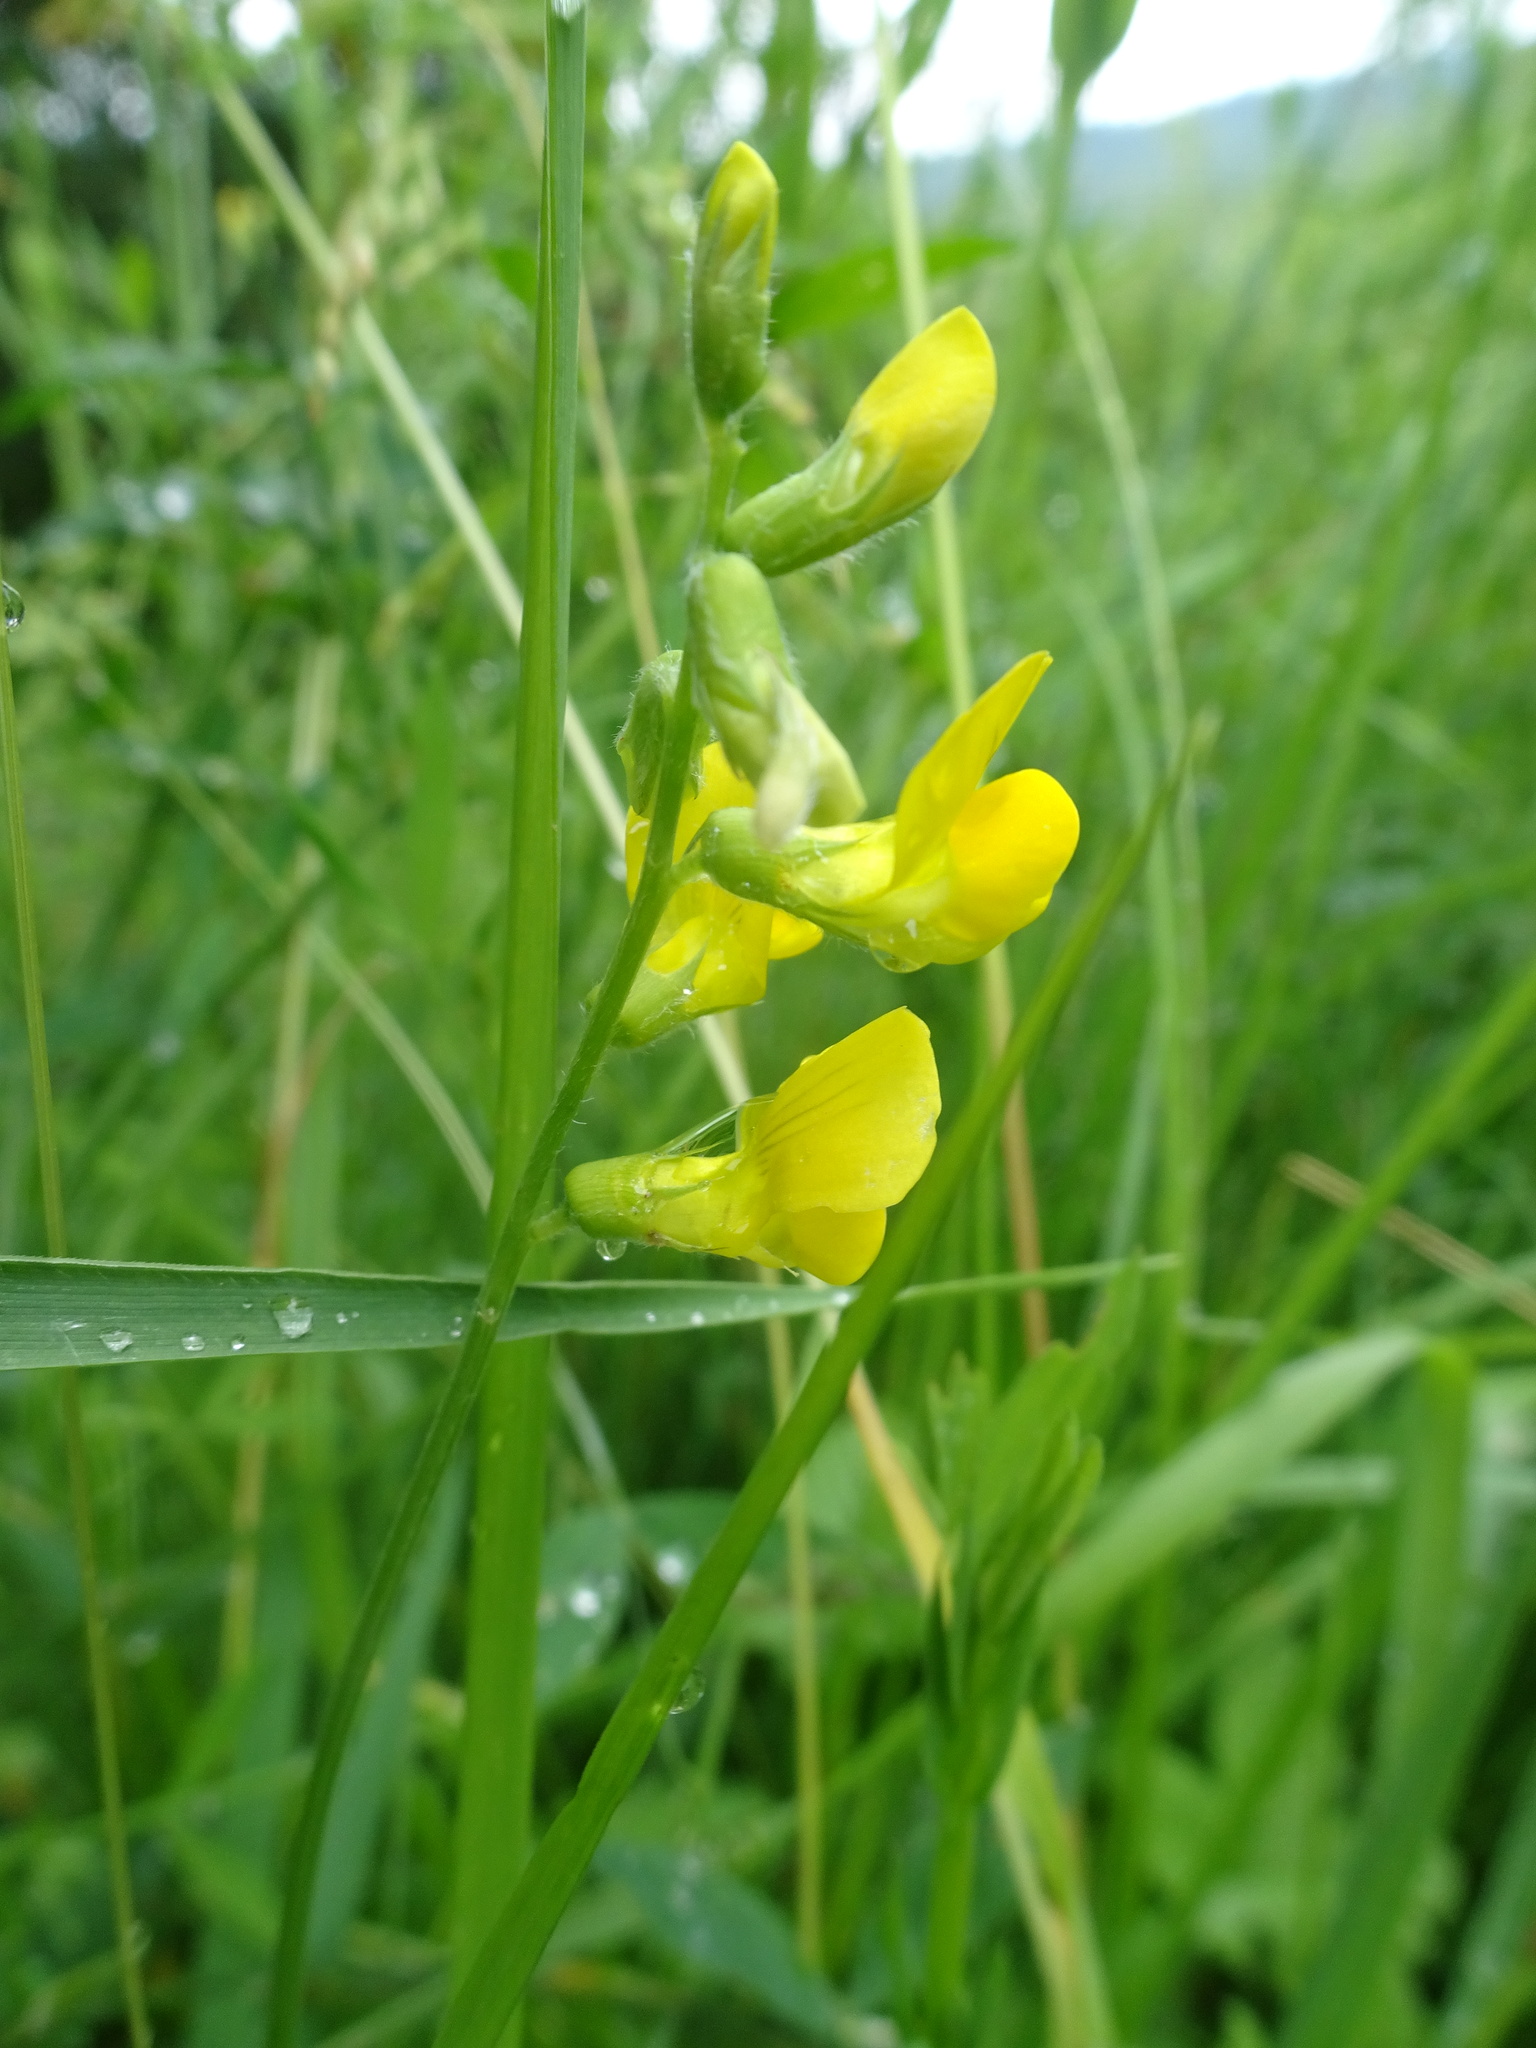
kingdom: Plantae
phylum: Tracheophyta
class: Magnoliopsida
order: Fabales
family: Fabaceae
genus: Lathyrus
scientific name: Lathyrus pratensis
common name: Meadow vetchling
